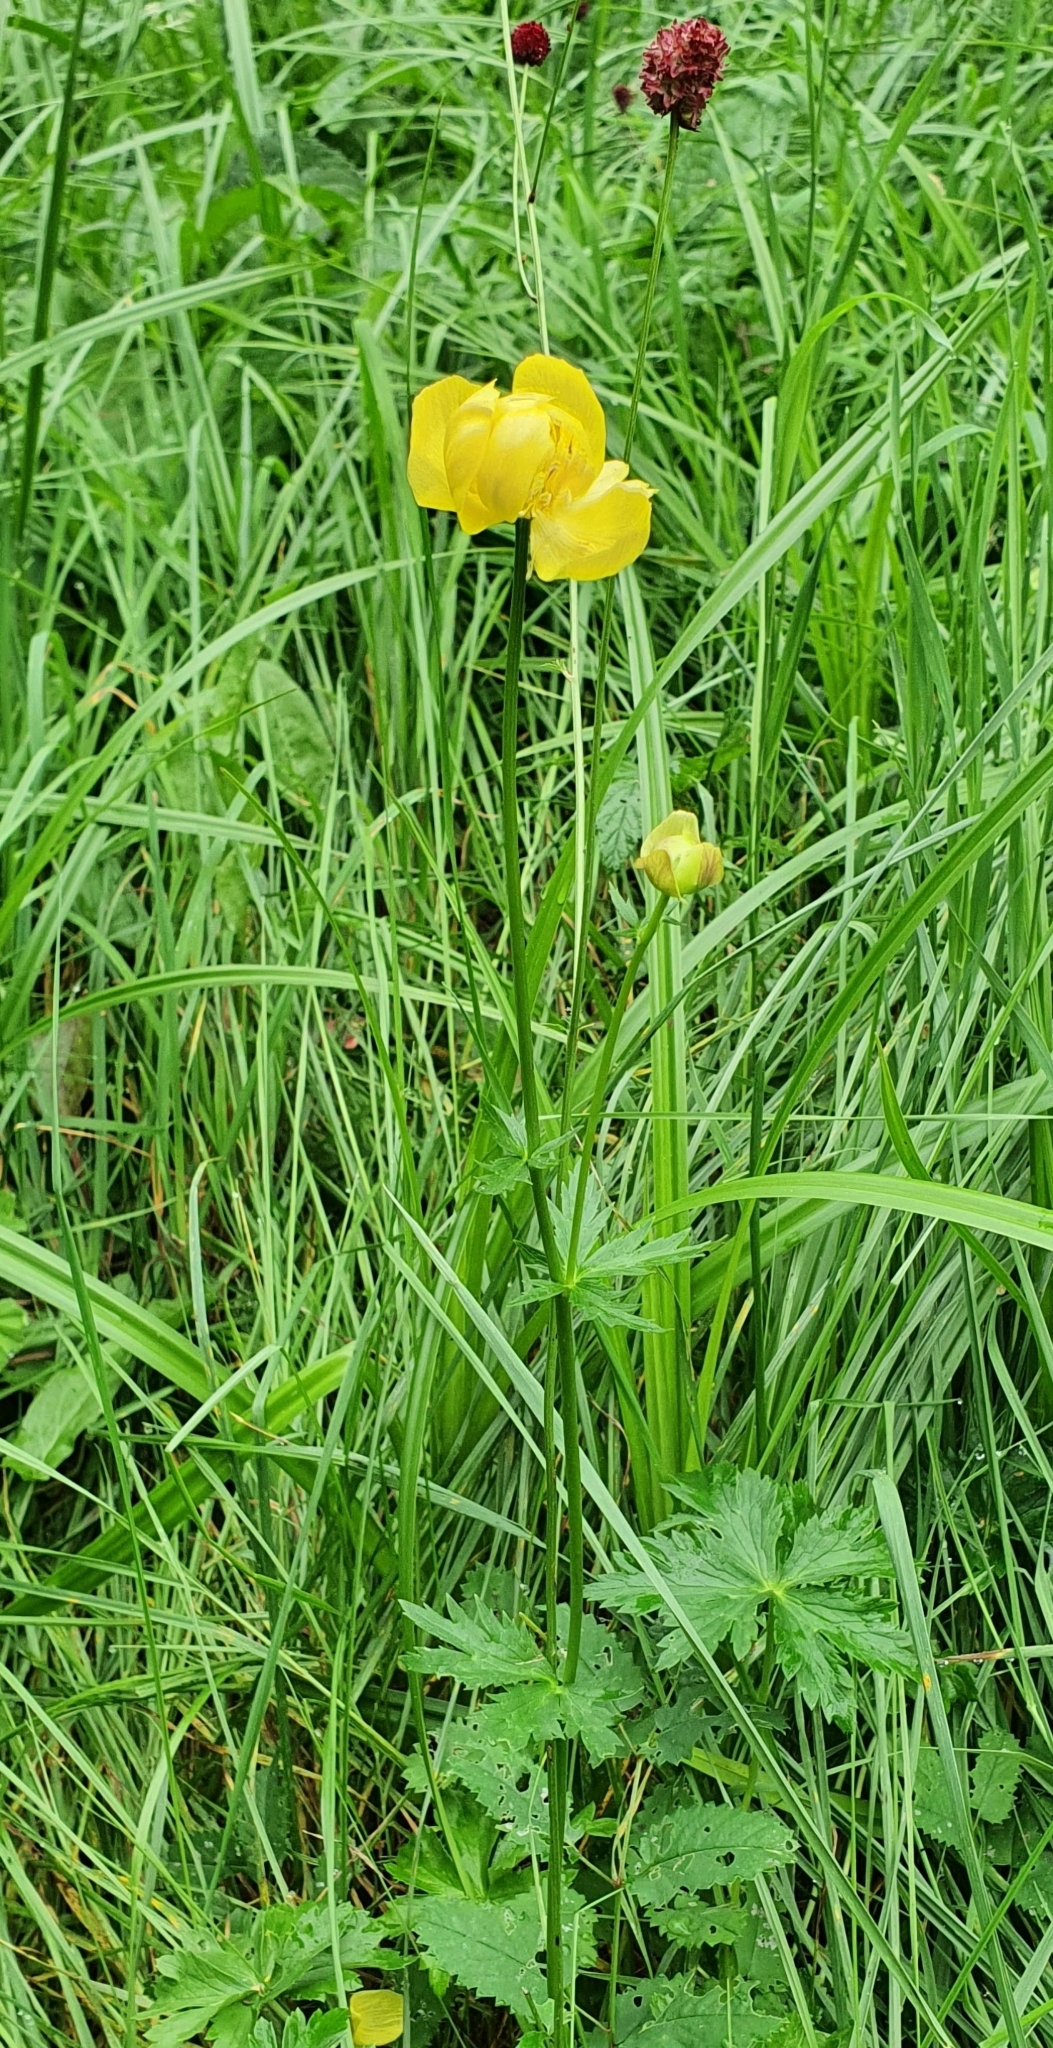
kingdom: Plantae
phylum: Tracheophyta
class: Magnoliopsida
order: Ranunculales
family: Ranunculaceae
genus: Trollius
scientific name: Trollius europaeus
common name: European globeflower
